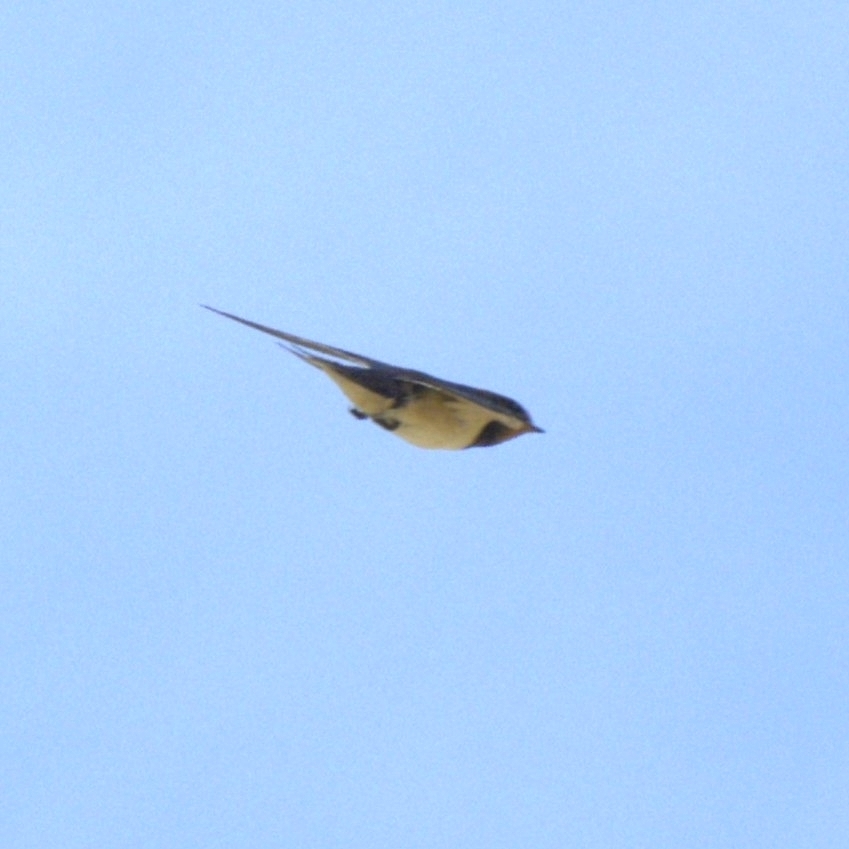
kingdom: Animalia
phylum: Chordata
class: Aves
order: Passeriformes
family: Hirundinidae
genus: Hirundo
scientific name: Hirundo rustica
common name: Barn swallow
